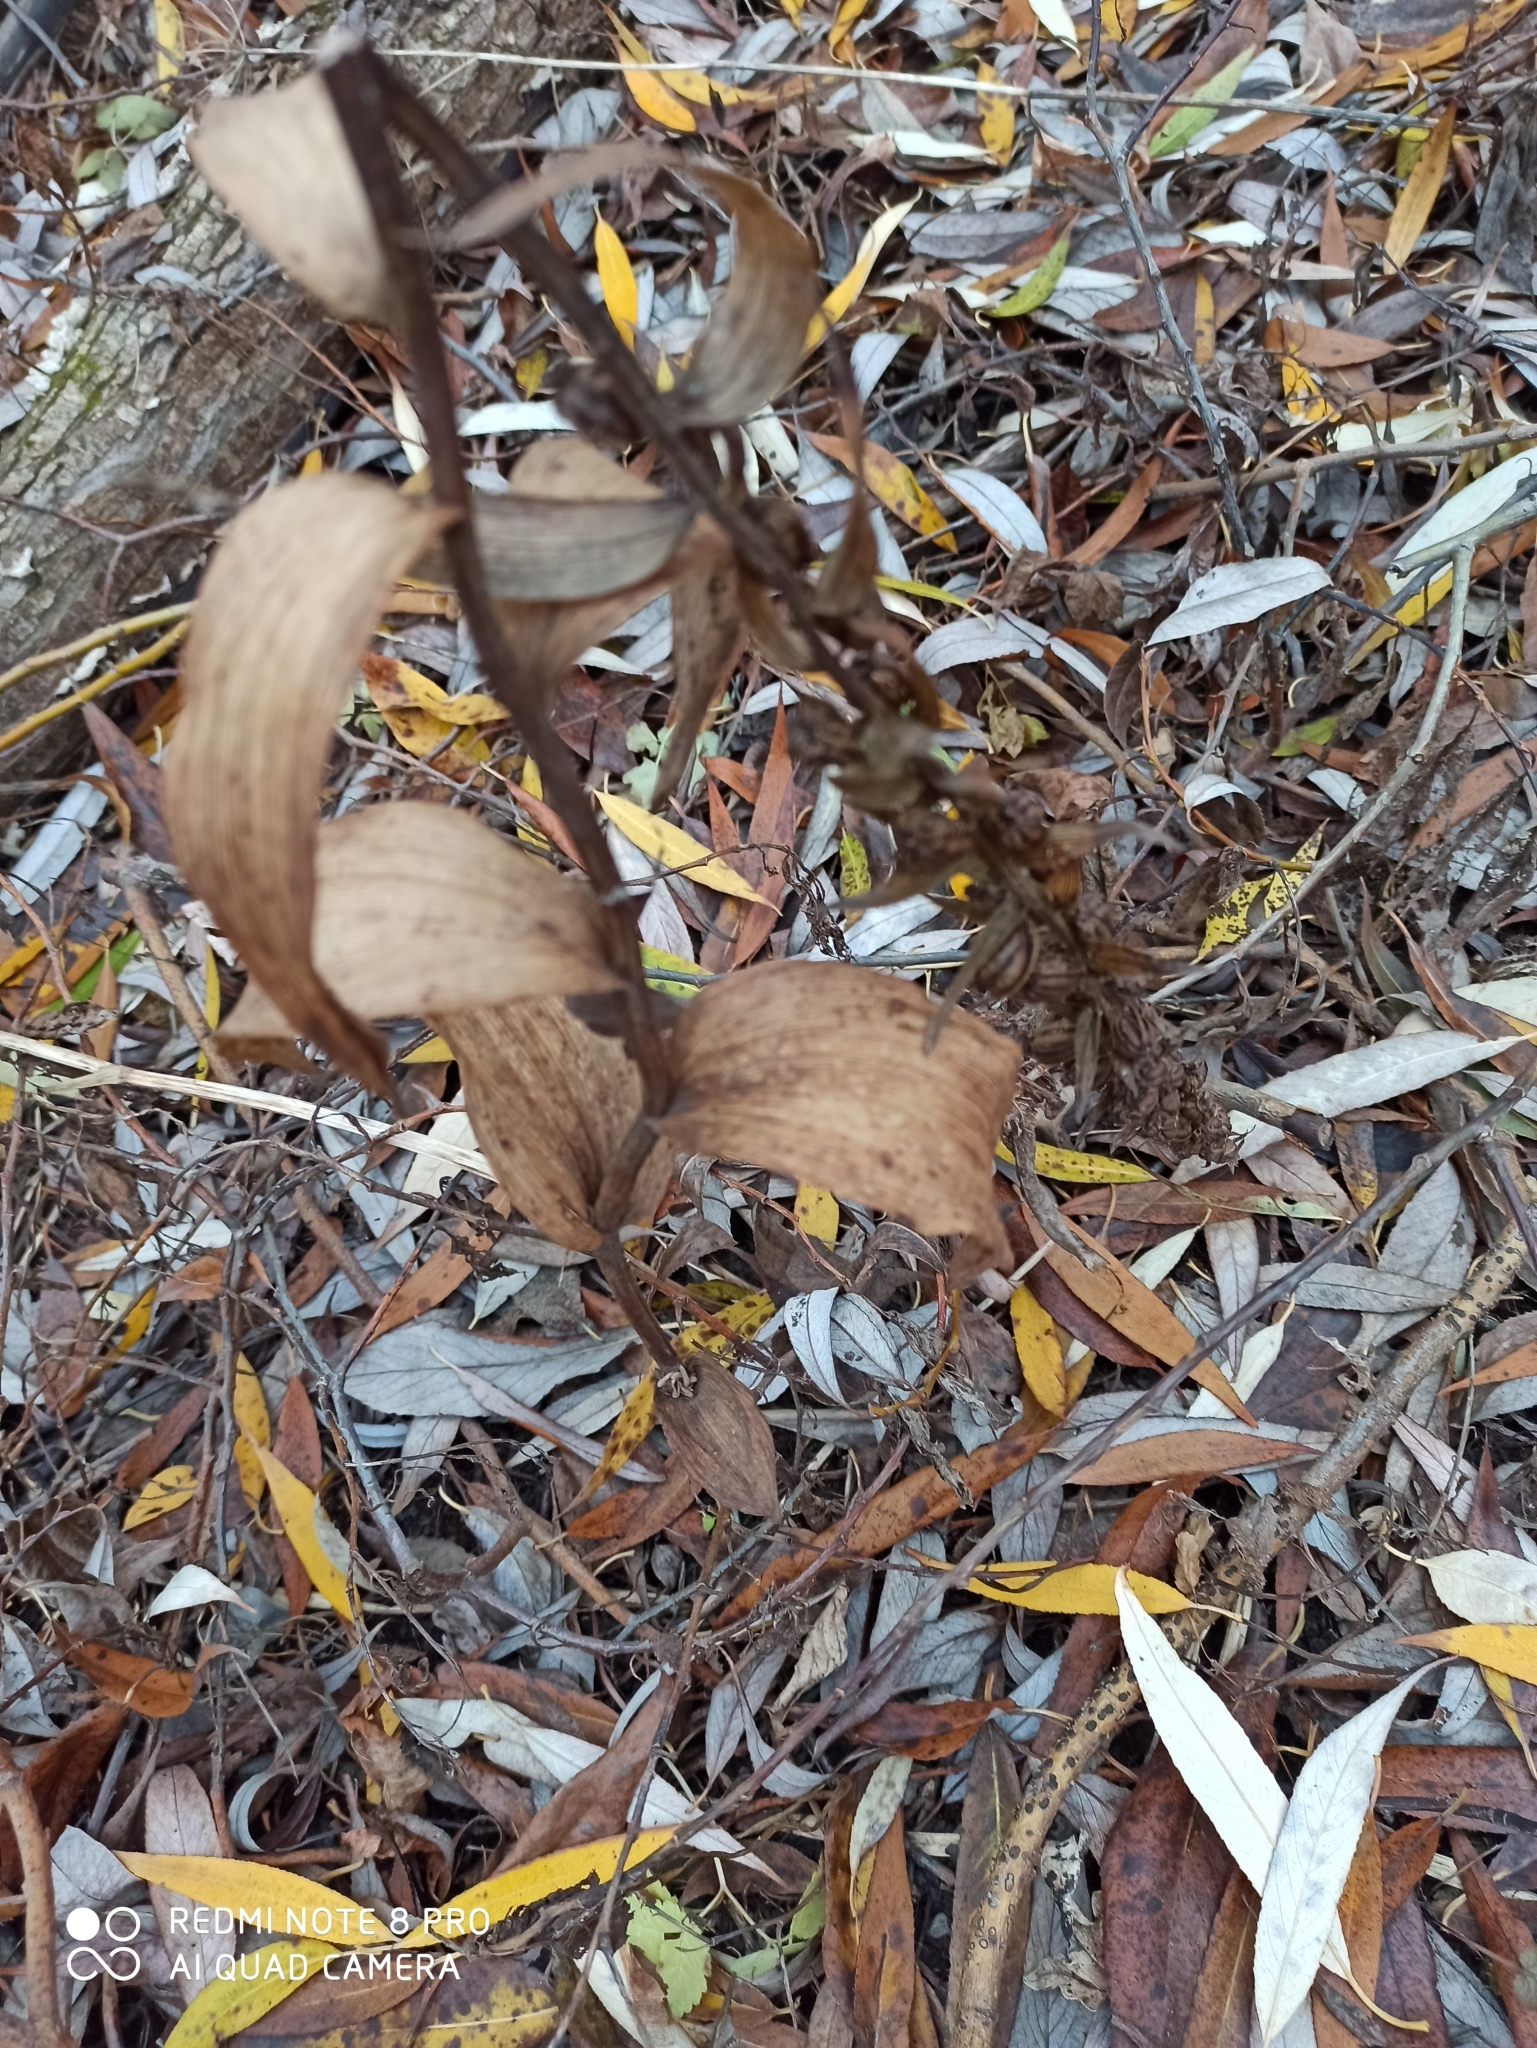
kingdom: Plantae
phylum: Tracheophyta
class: Liliopsida
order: Asparagales
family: Orchidaceae
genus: Epipactis
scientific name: Epipactis helleborine
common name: Broad-leaved helleborine
